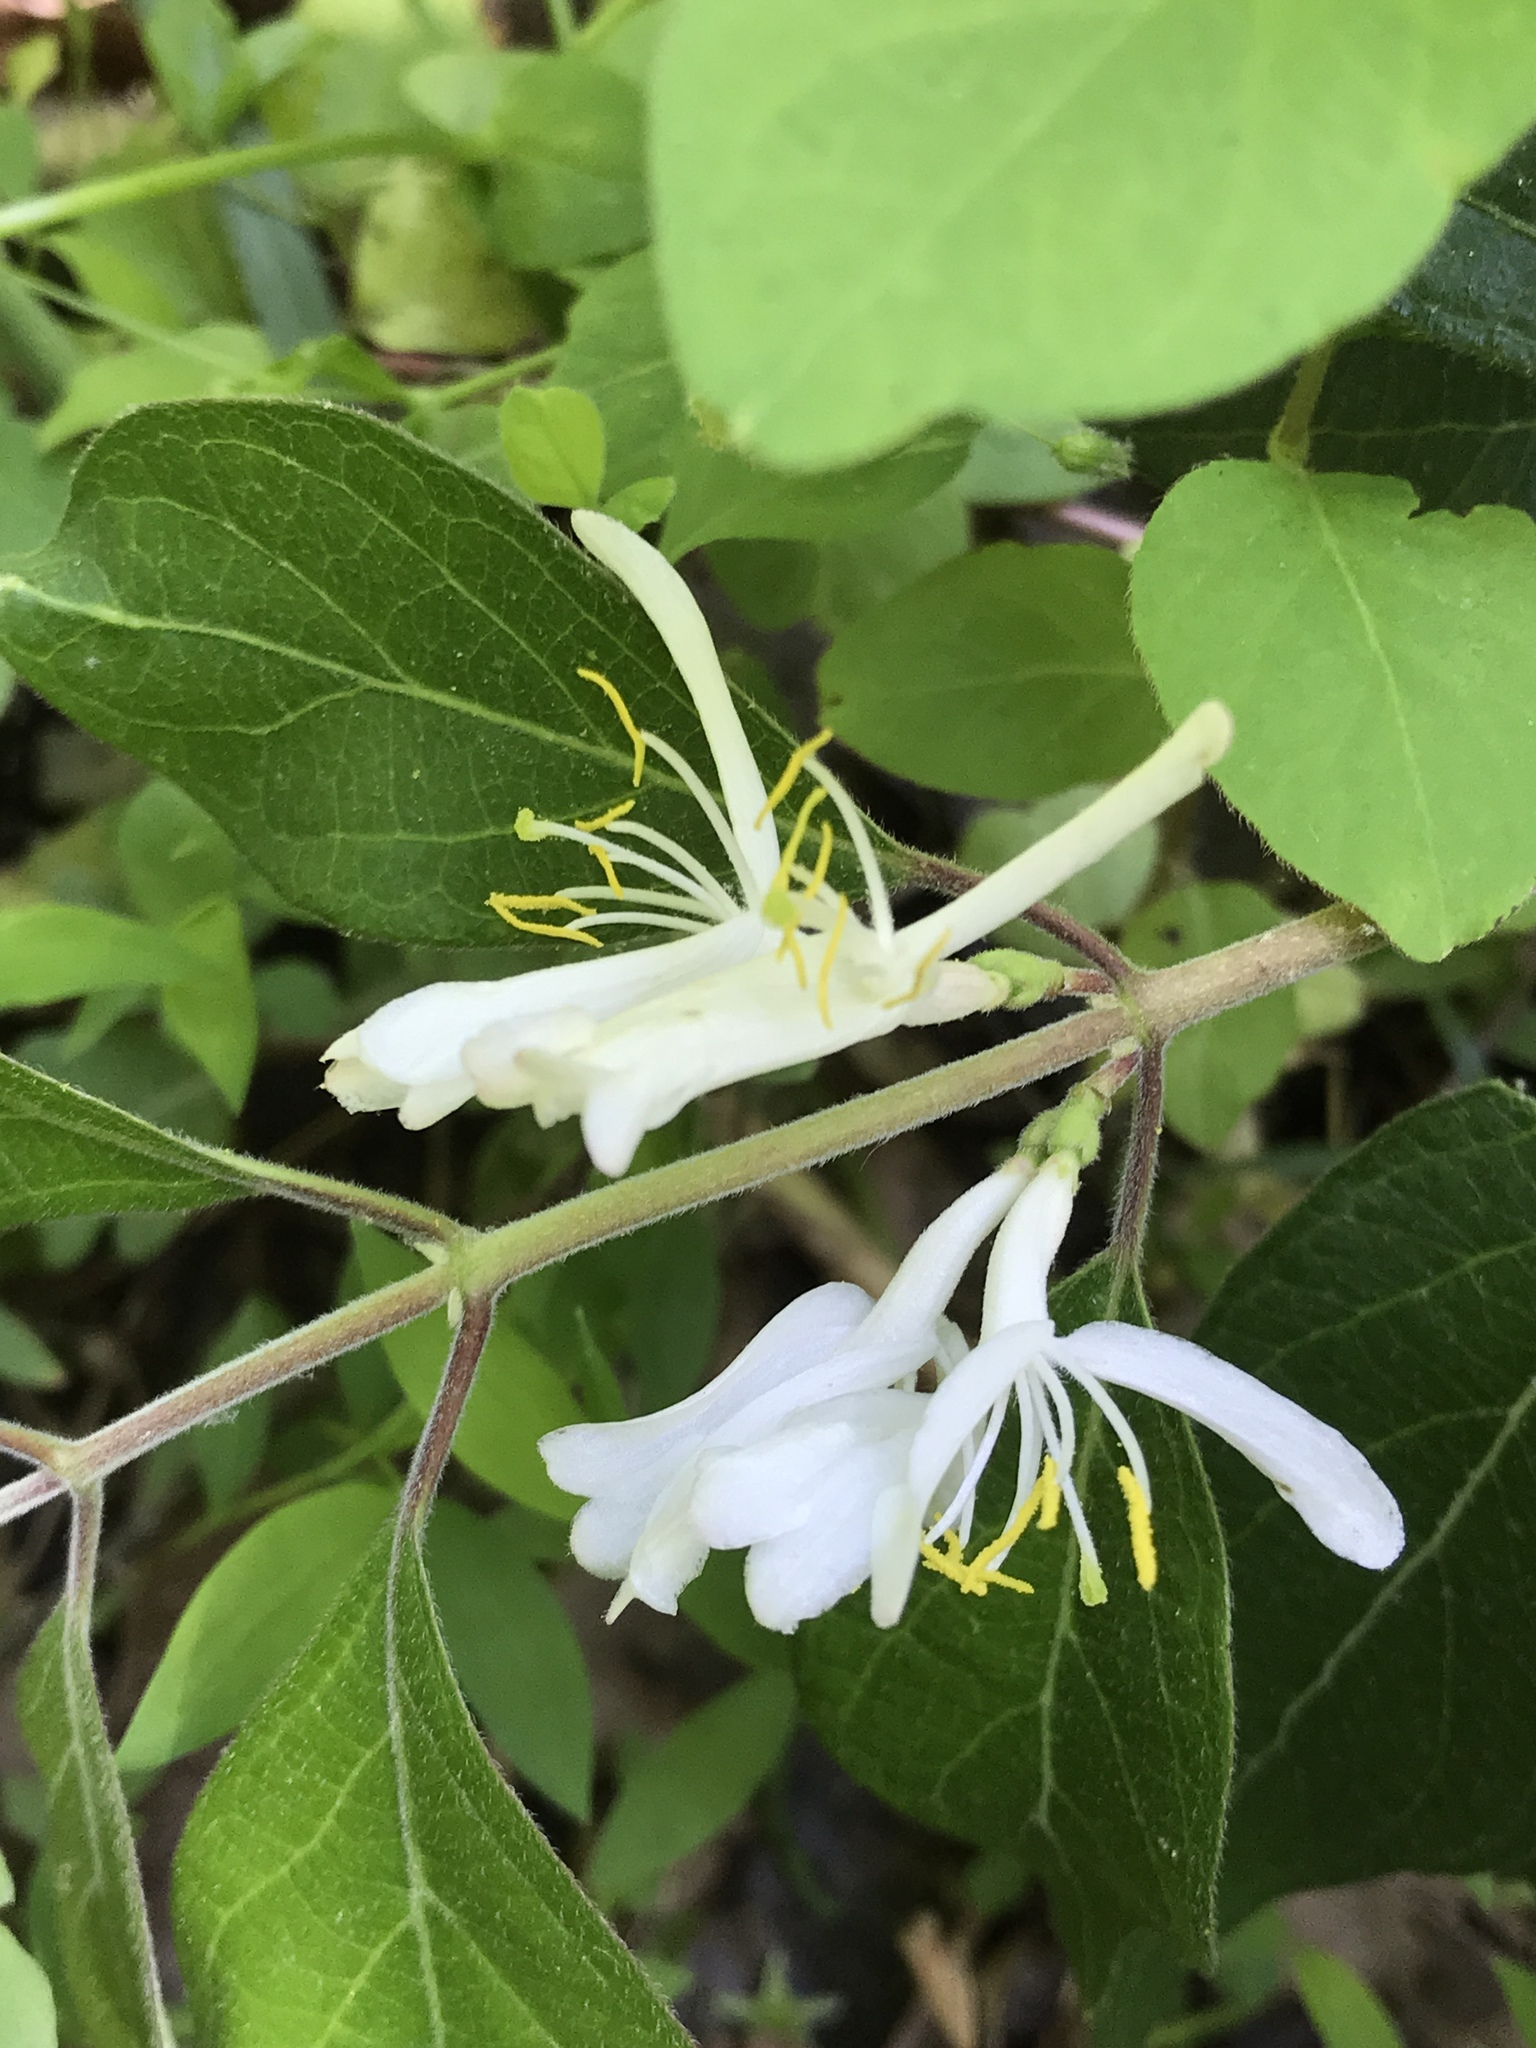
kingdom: Plantae
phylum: Tracheophyta
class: Magnoliopsida
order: Dipsacales
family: Caprifoliaceae
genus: Lonicera
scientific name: Lonicera maackii
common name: Amur honeysuckle
